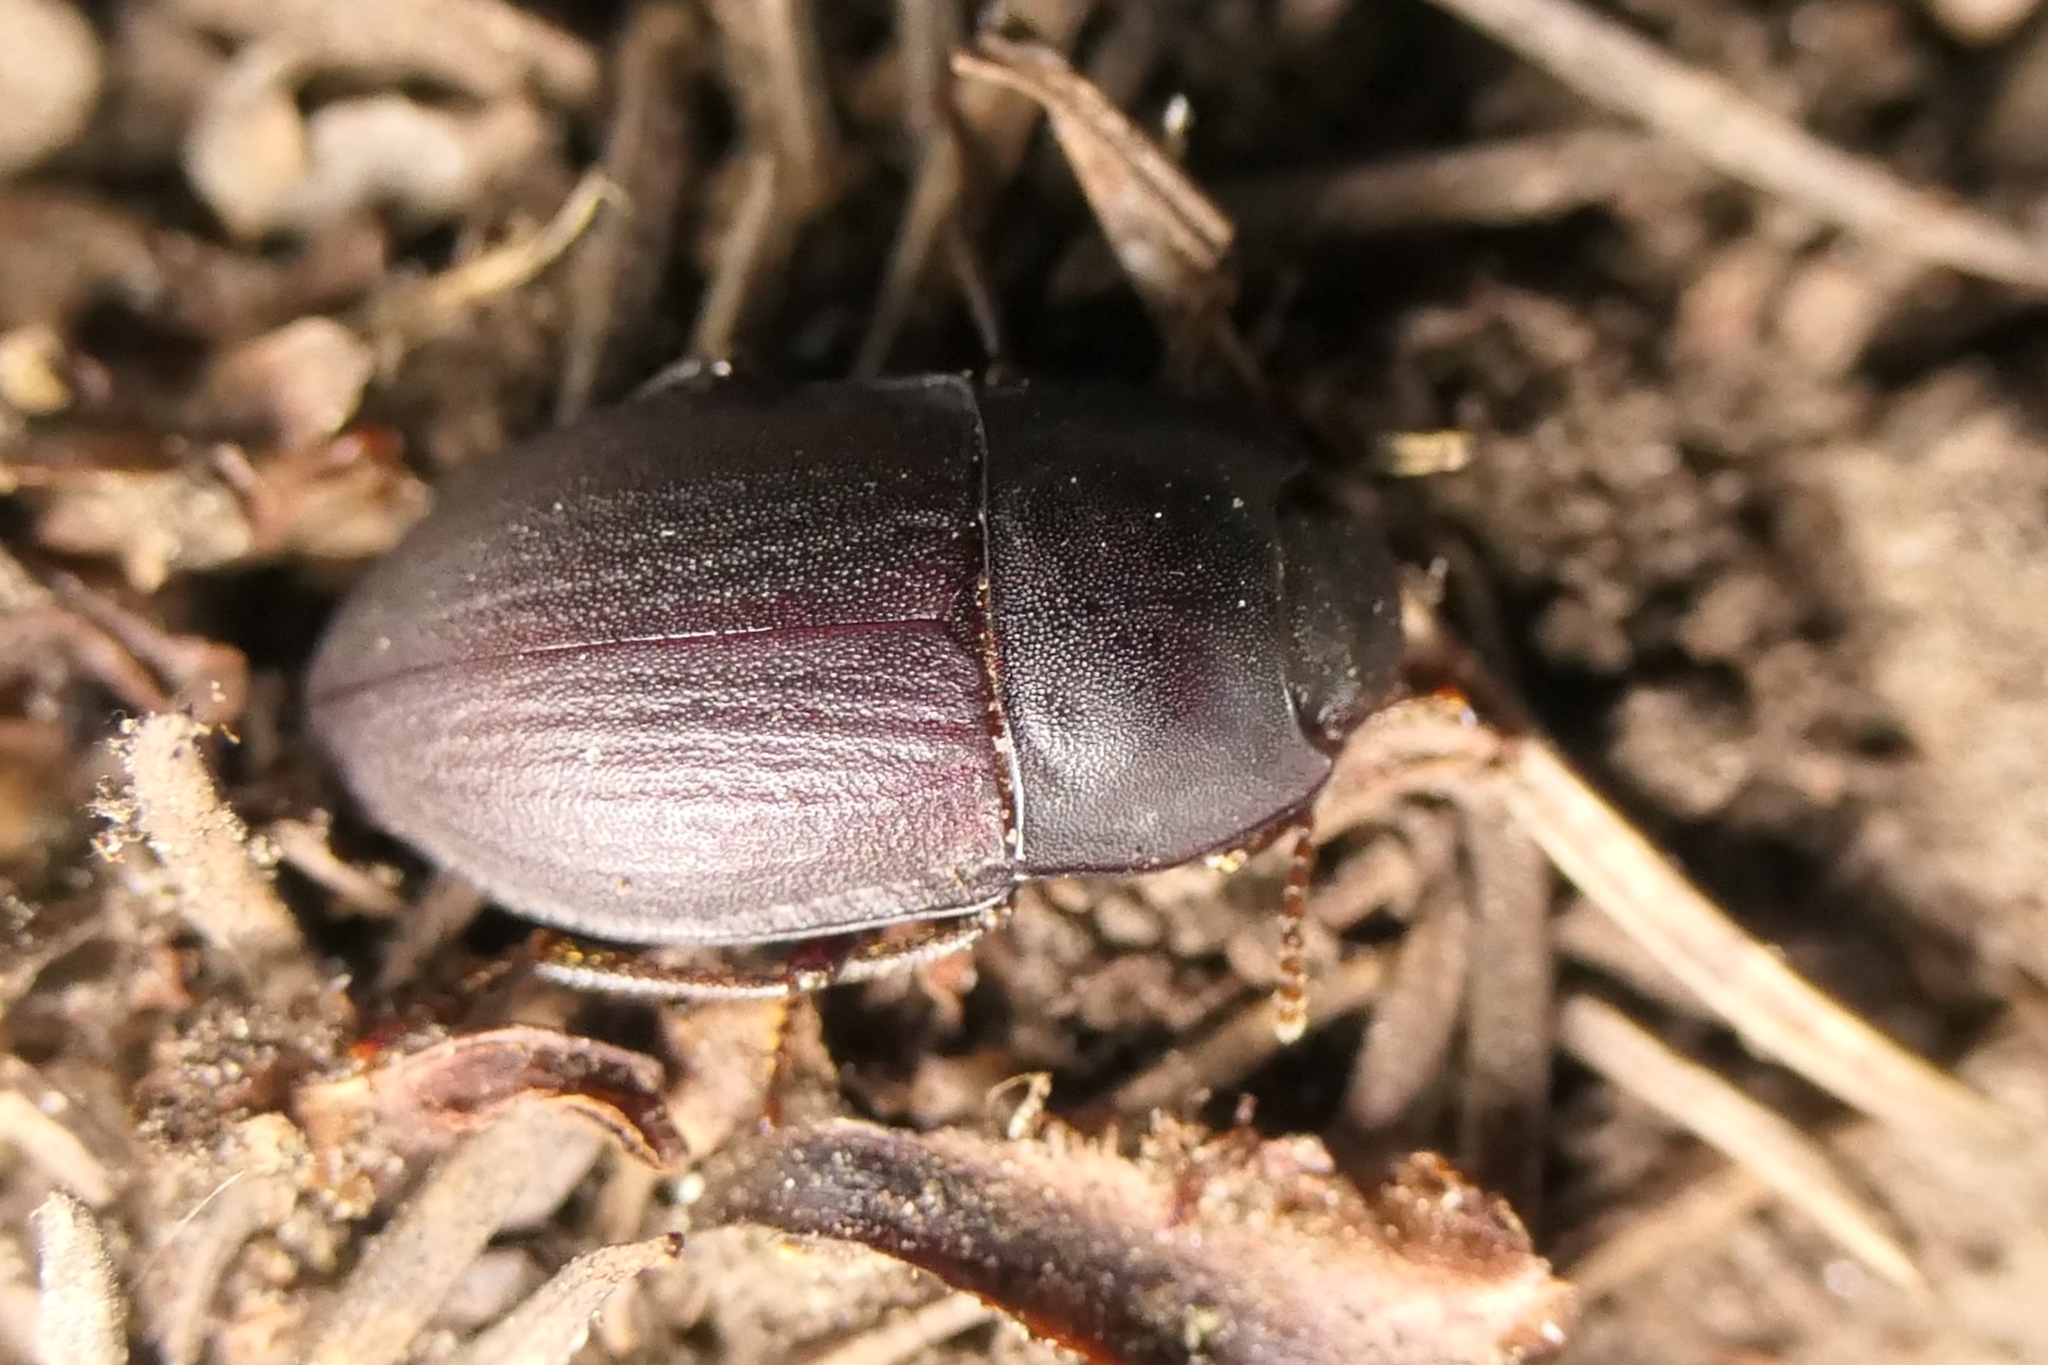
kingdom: Animalia
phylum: Arthropoda
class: Insecta
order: Coleoptera
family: Tenebrionidae
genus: Mimopeus
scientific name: Mimopeus
